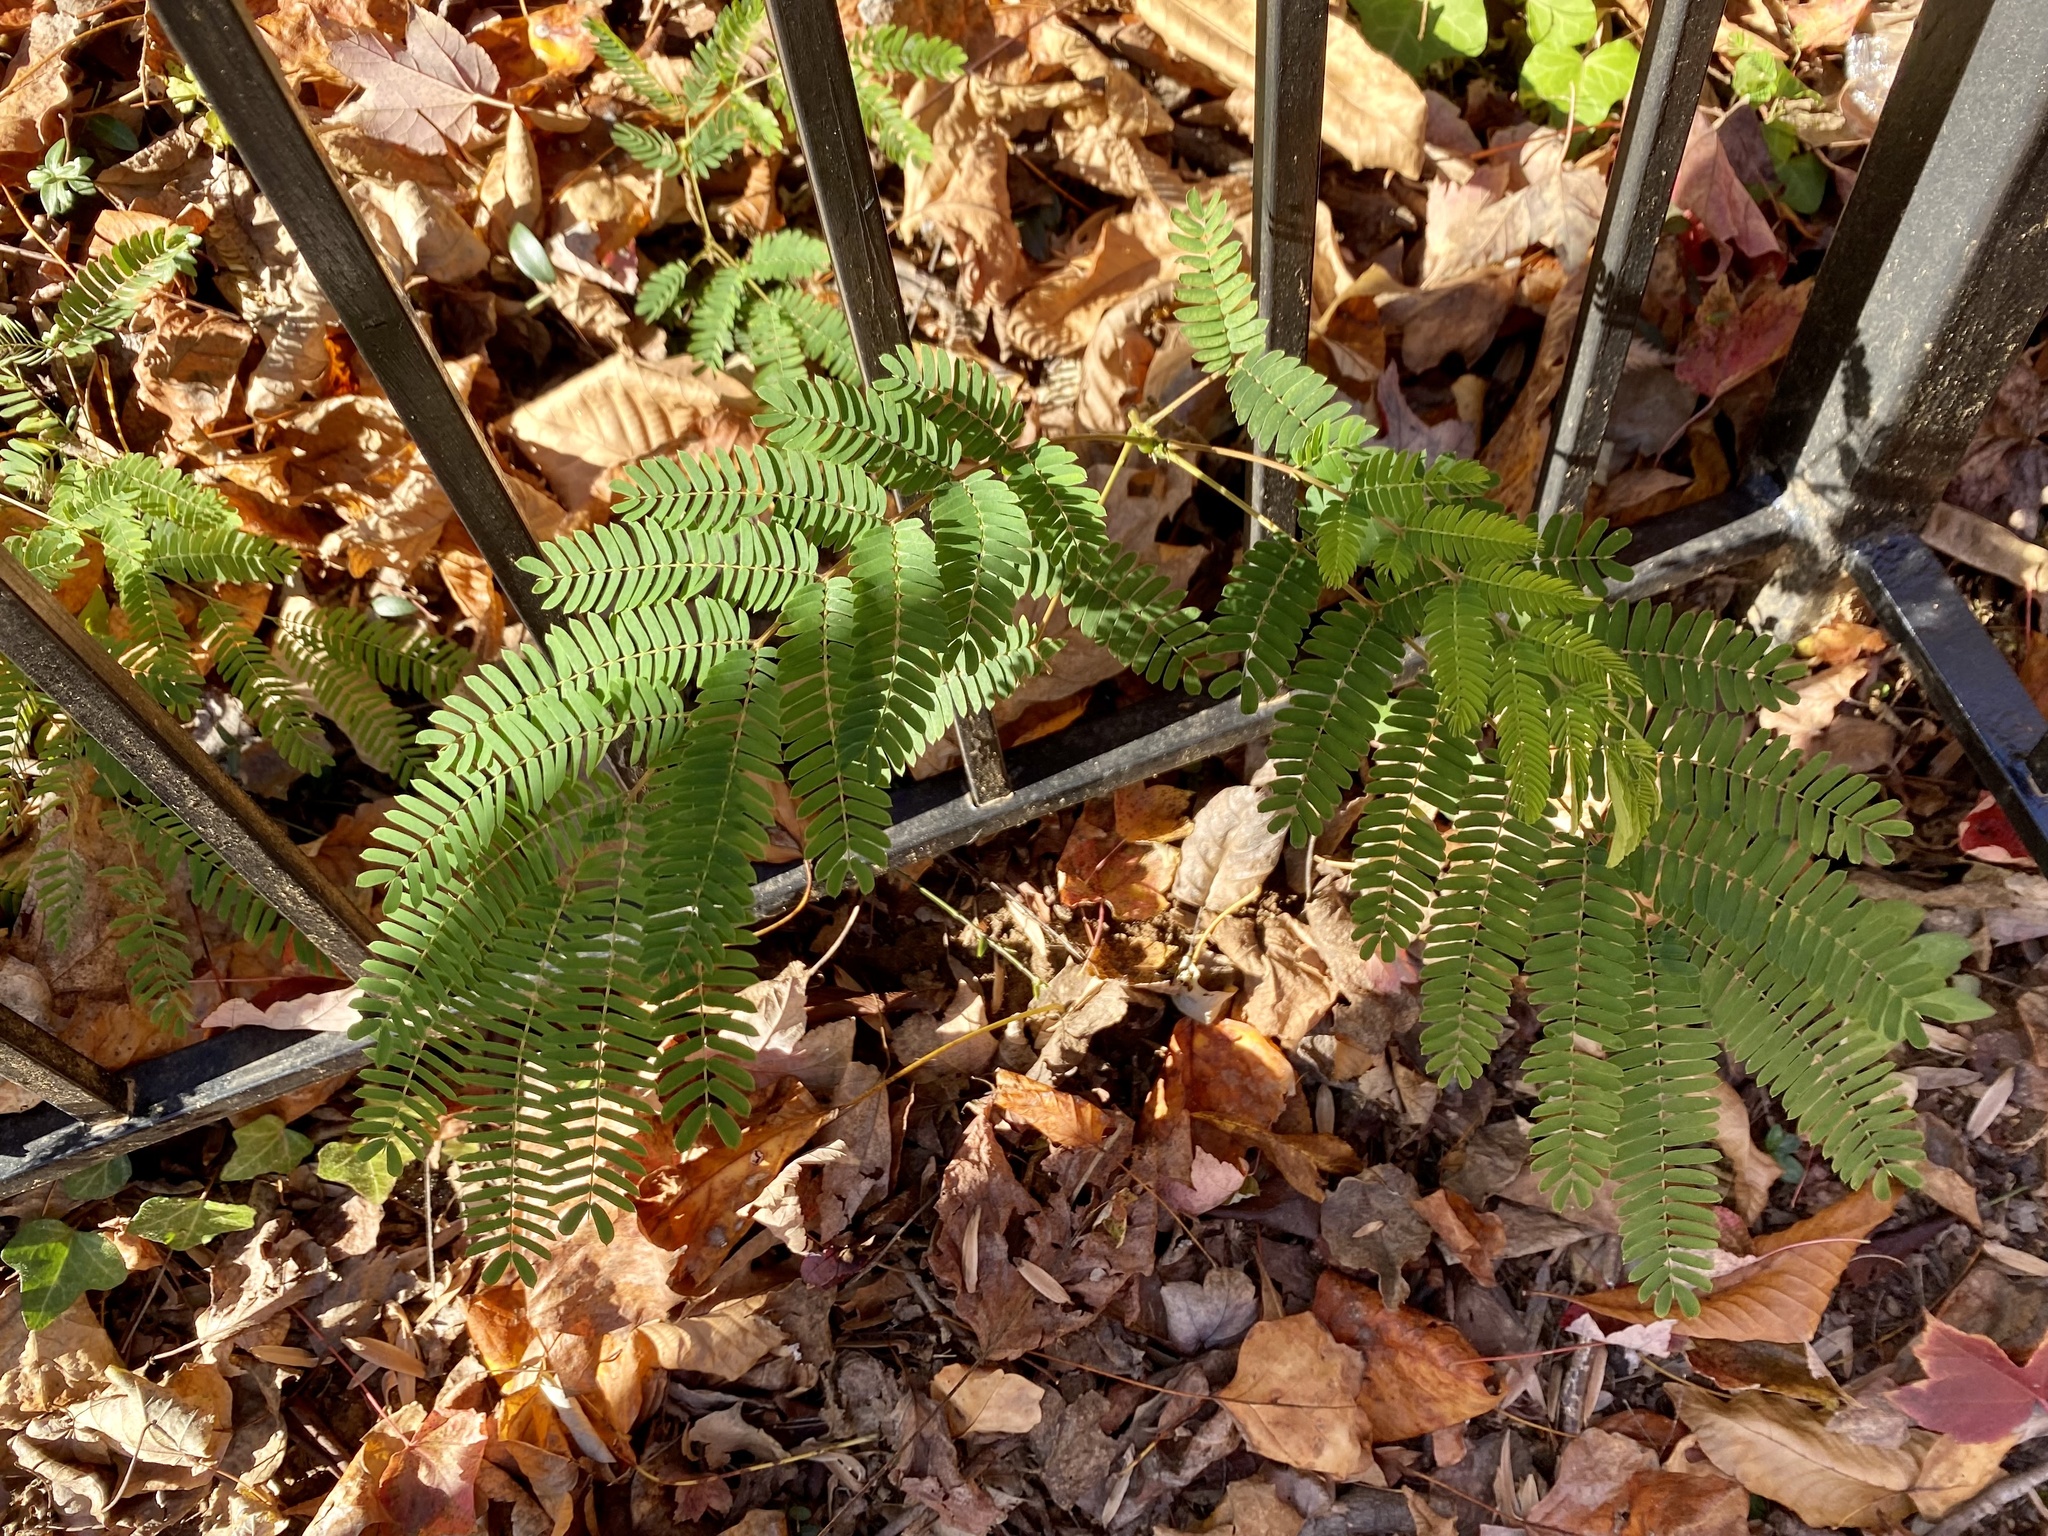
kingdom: Plantae
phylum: Tracheophyta
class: Magnoliopsida
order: Fabales
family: Fabaceae
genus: Albizia
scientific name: Albizia julibrissin
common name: Silktree
